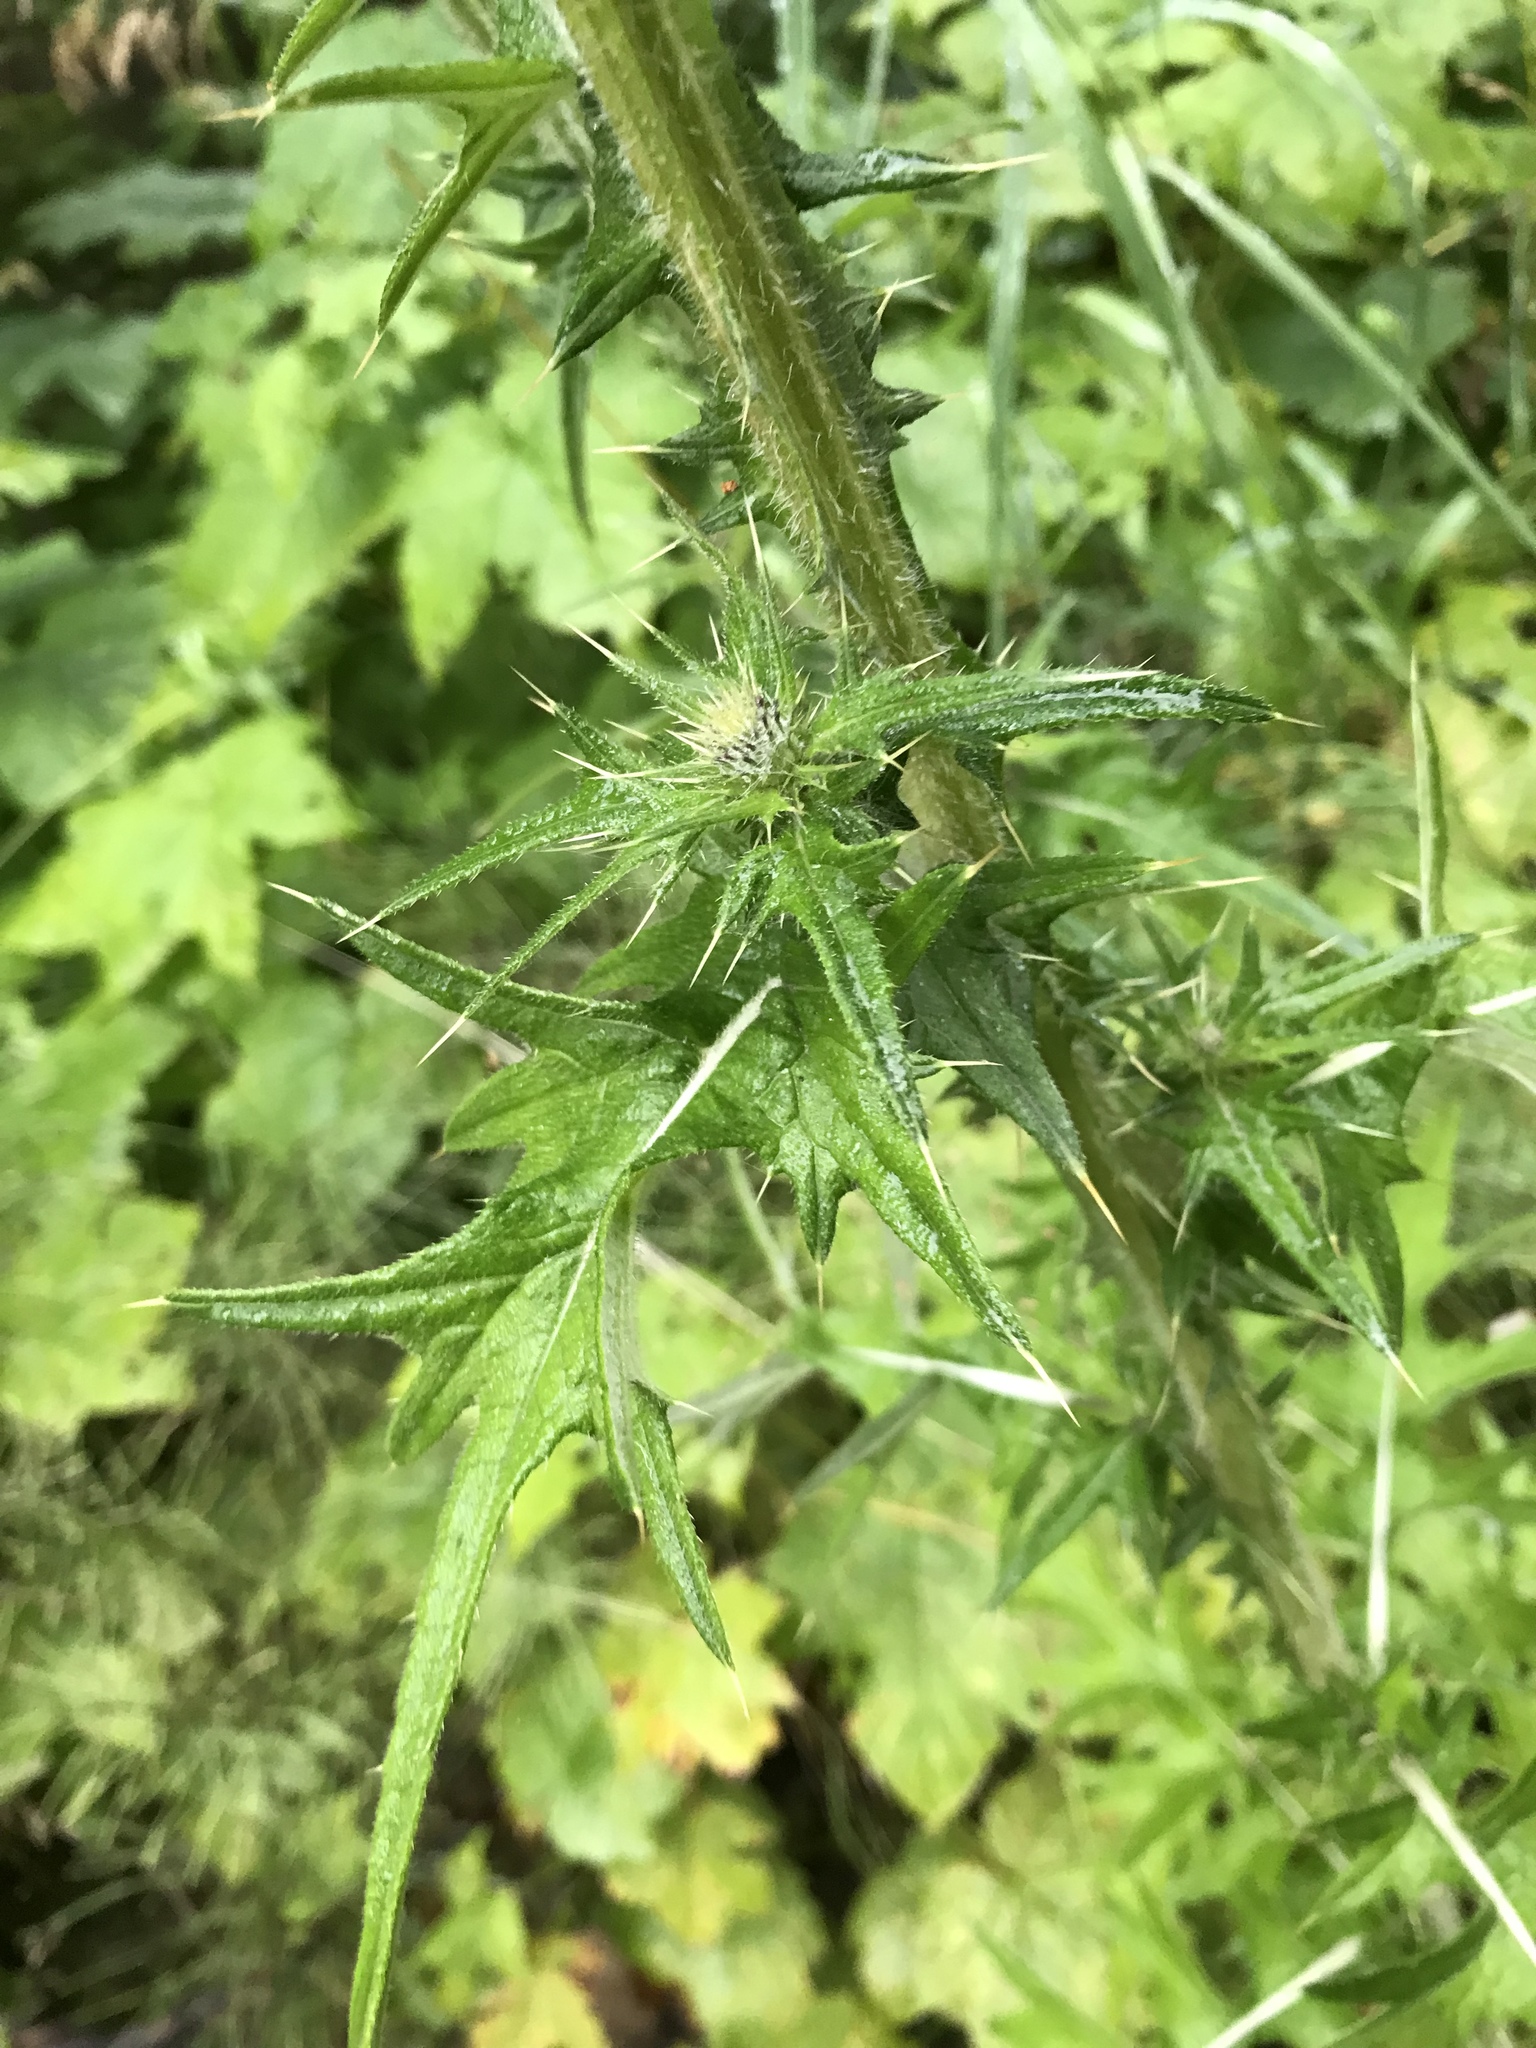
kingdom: Plantae
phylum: Tracheophyta
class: Magnoliopsida
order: Asterales
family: Asteraceae
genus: Cirsium
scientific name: Cirsium vulgare
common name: Bull thistle
